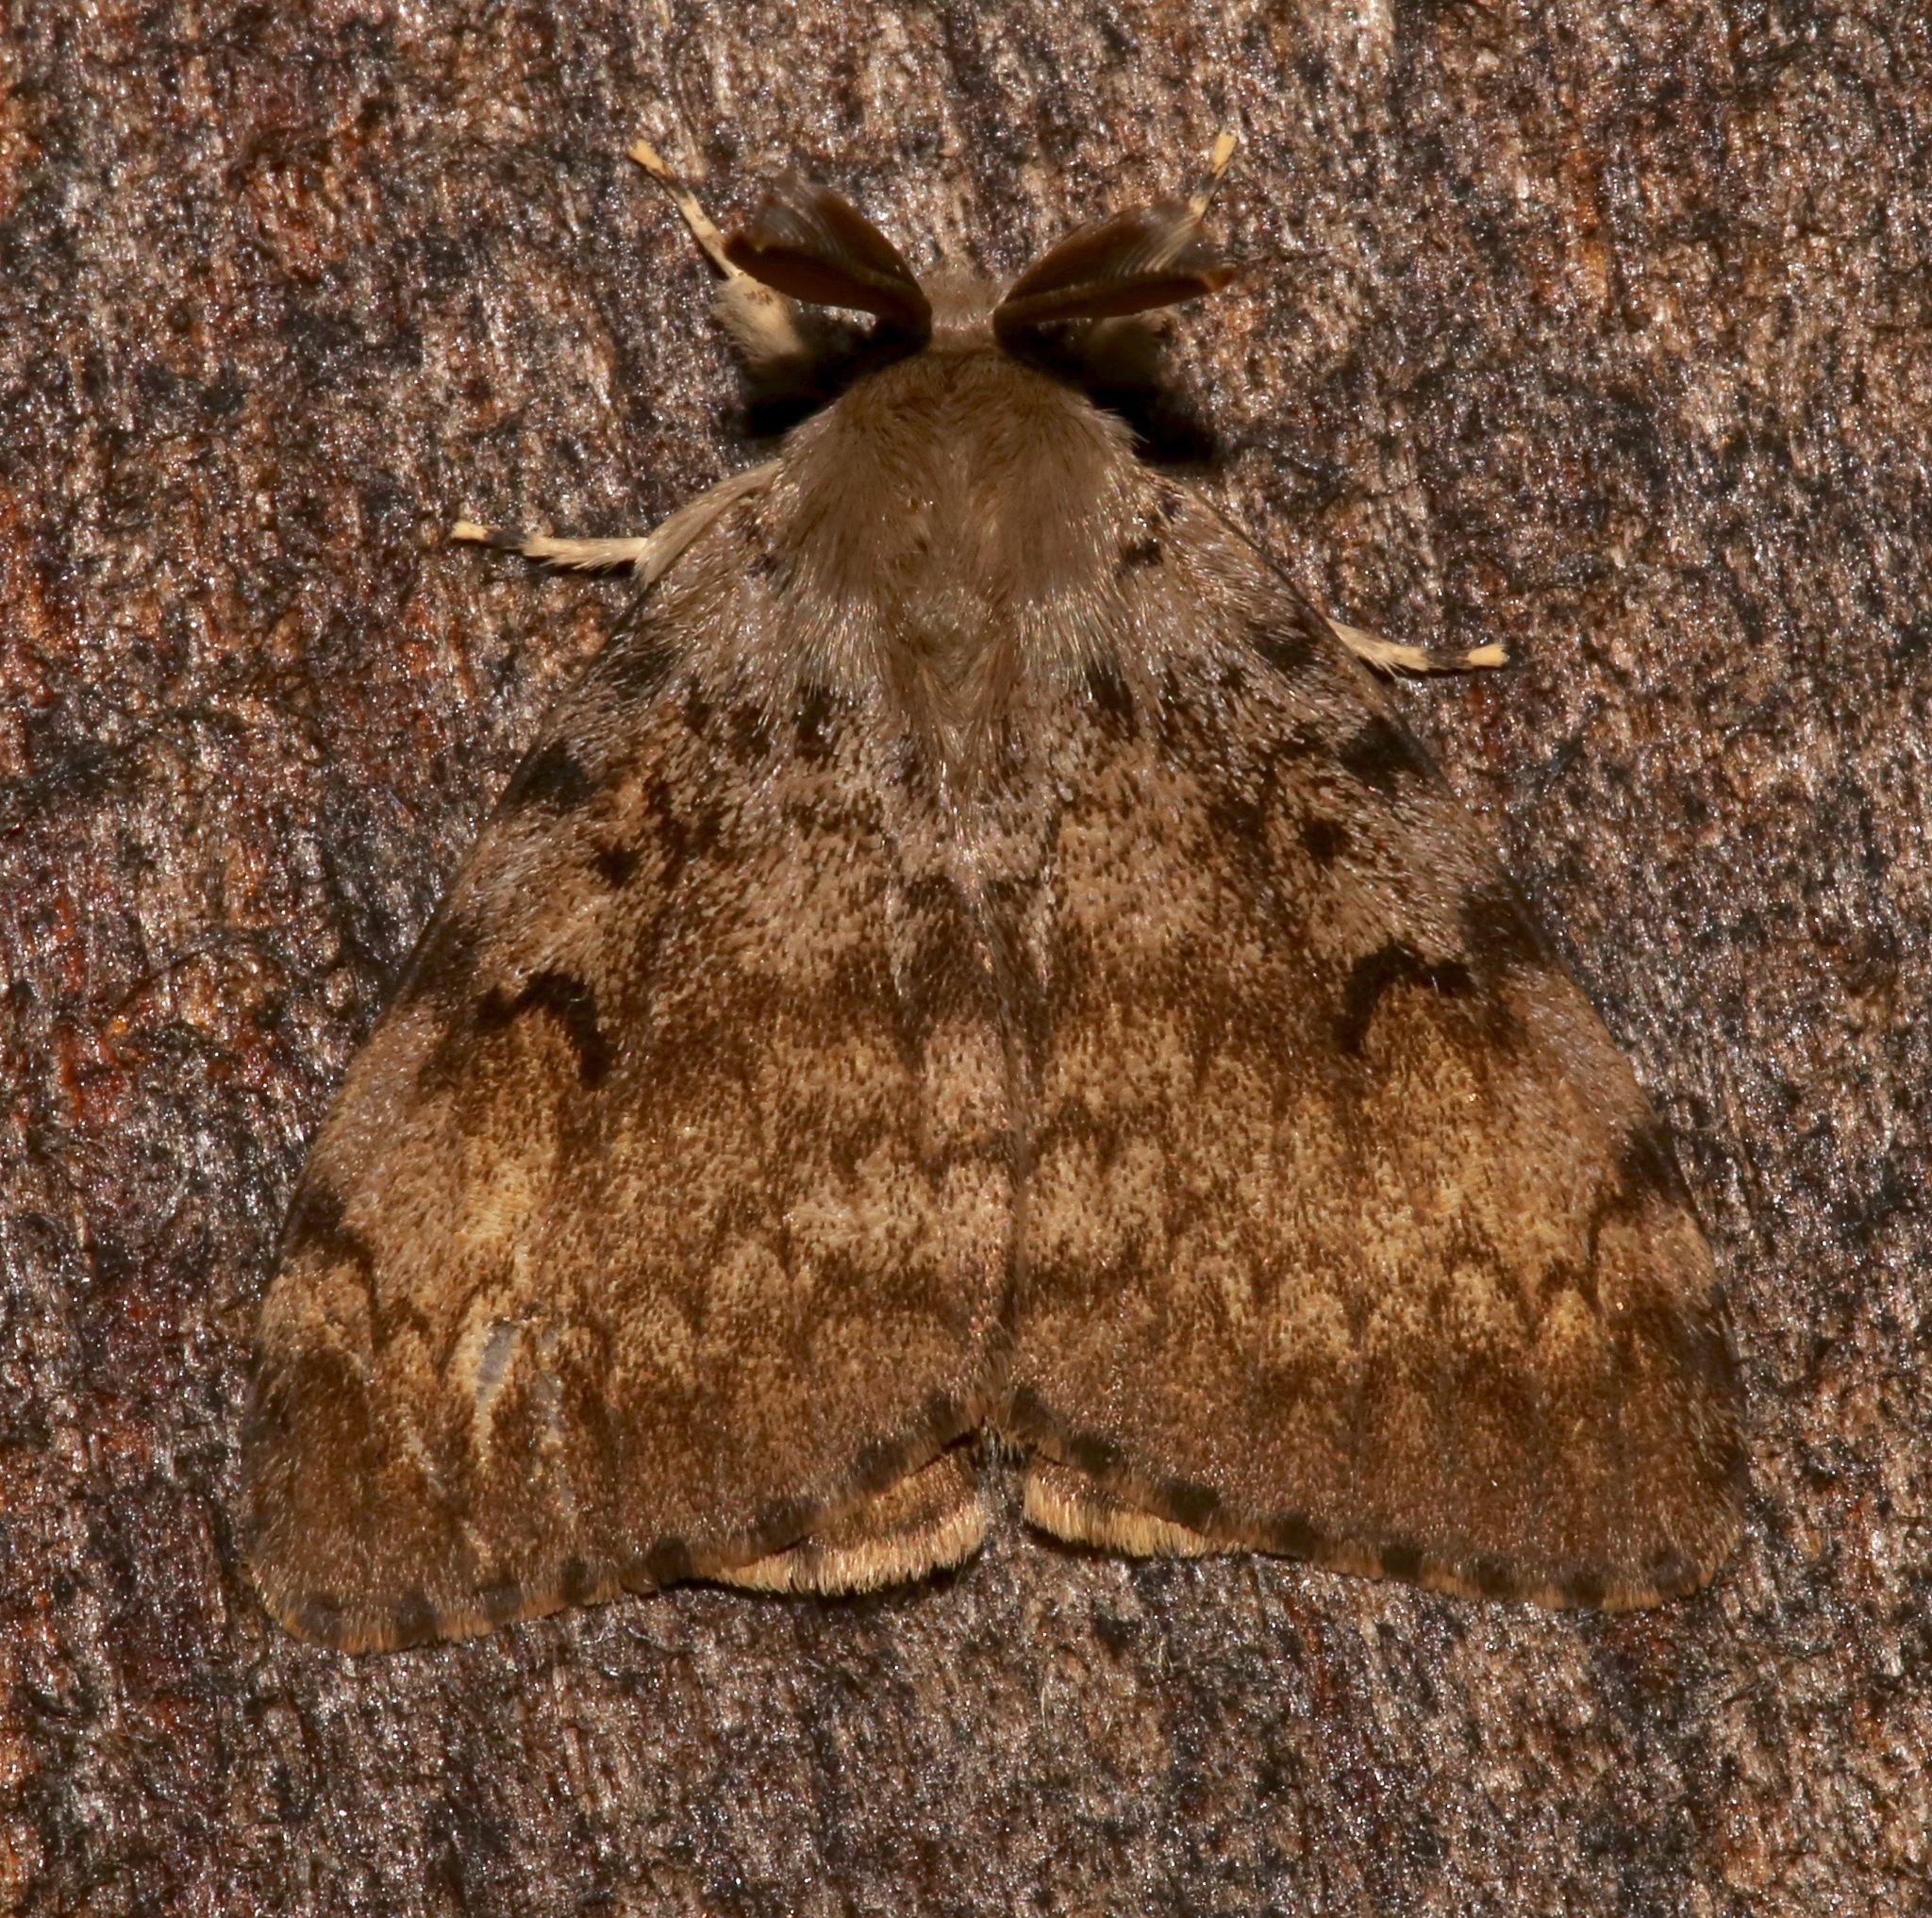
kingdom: Animalia
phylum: Arthropoda
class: Insecta
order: Lepidoptera
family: Erebidae
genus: Lymantria
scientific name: Lymantria dispar
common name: Gypsy moth
